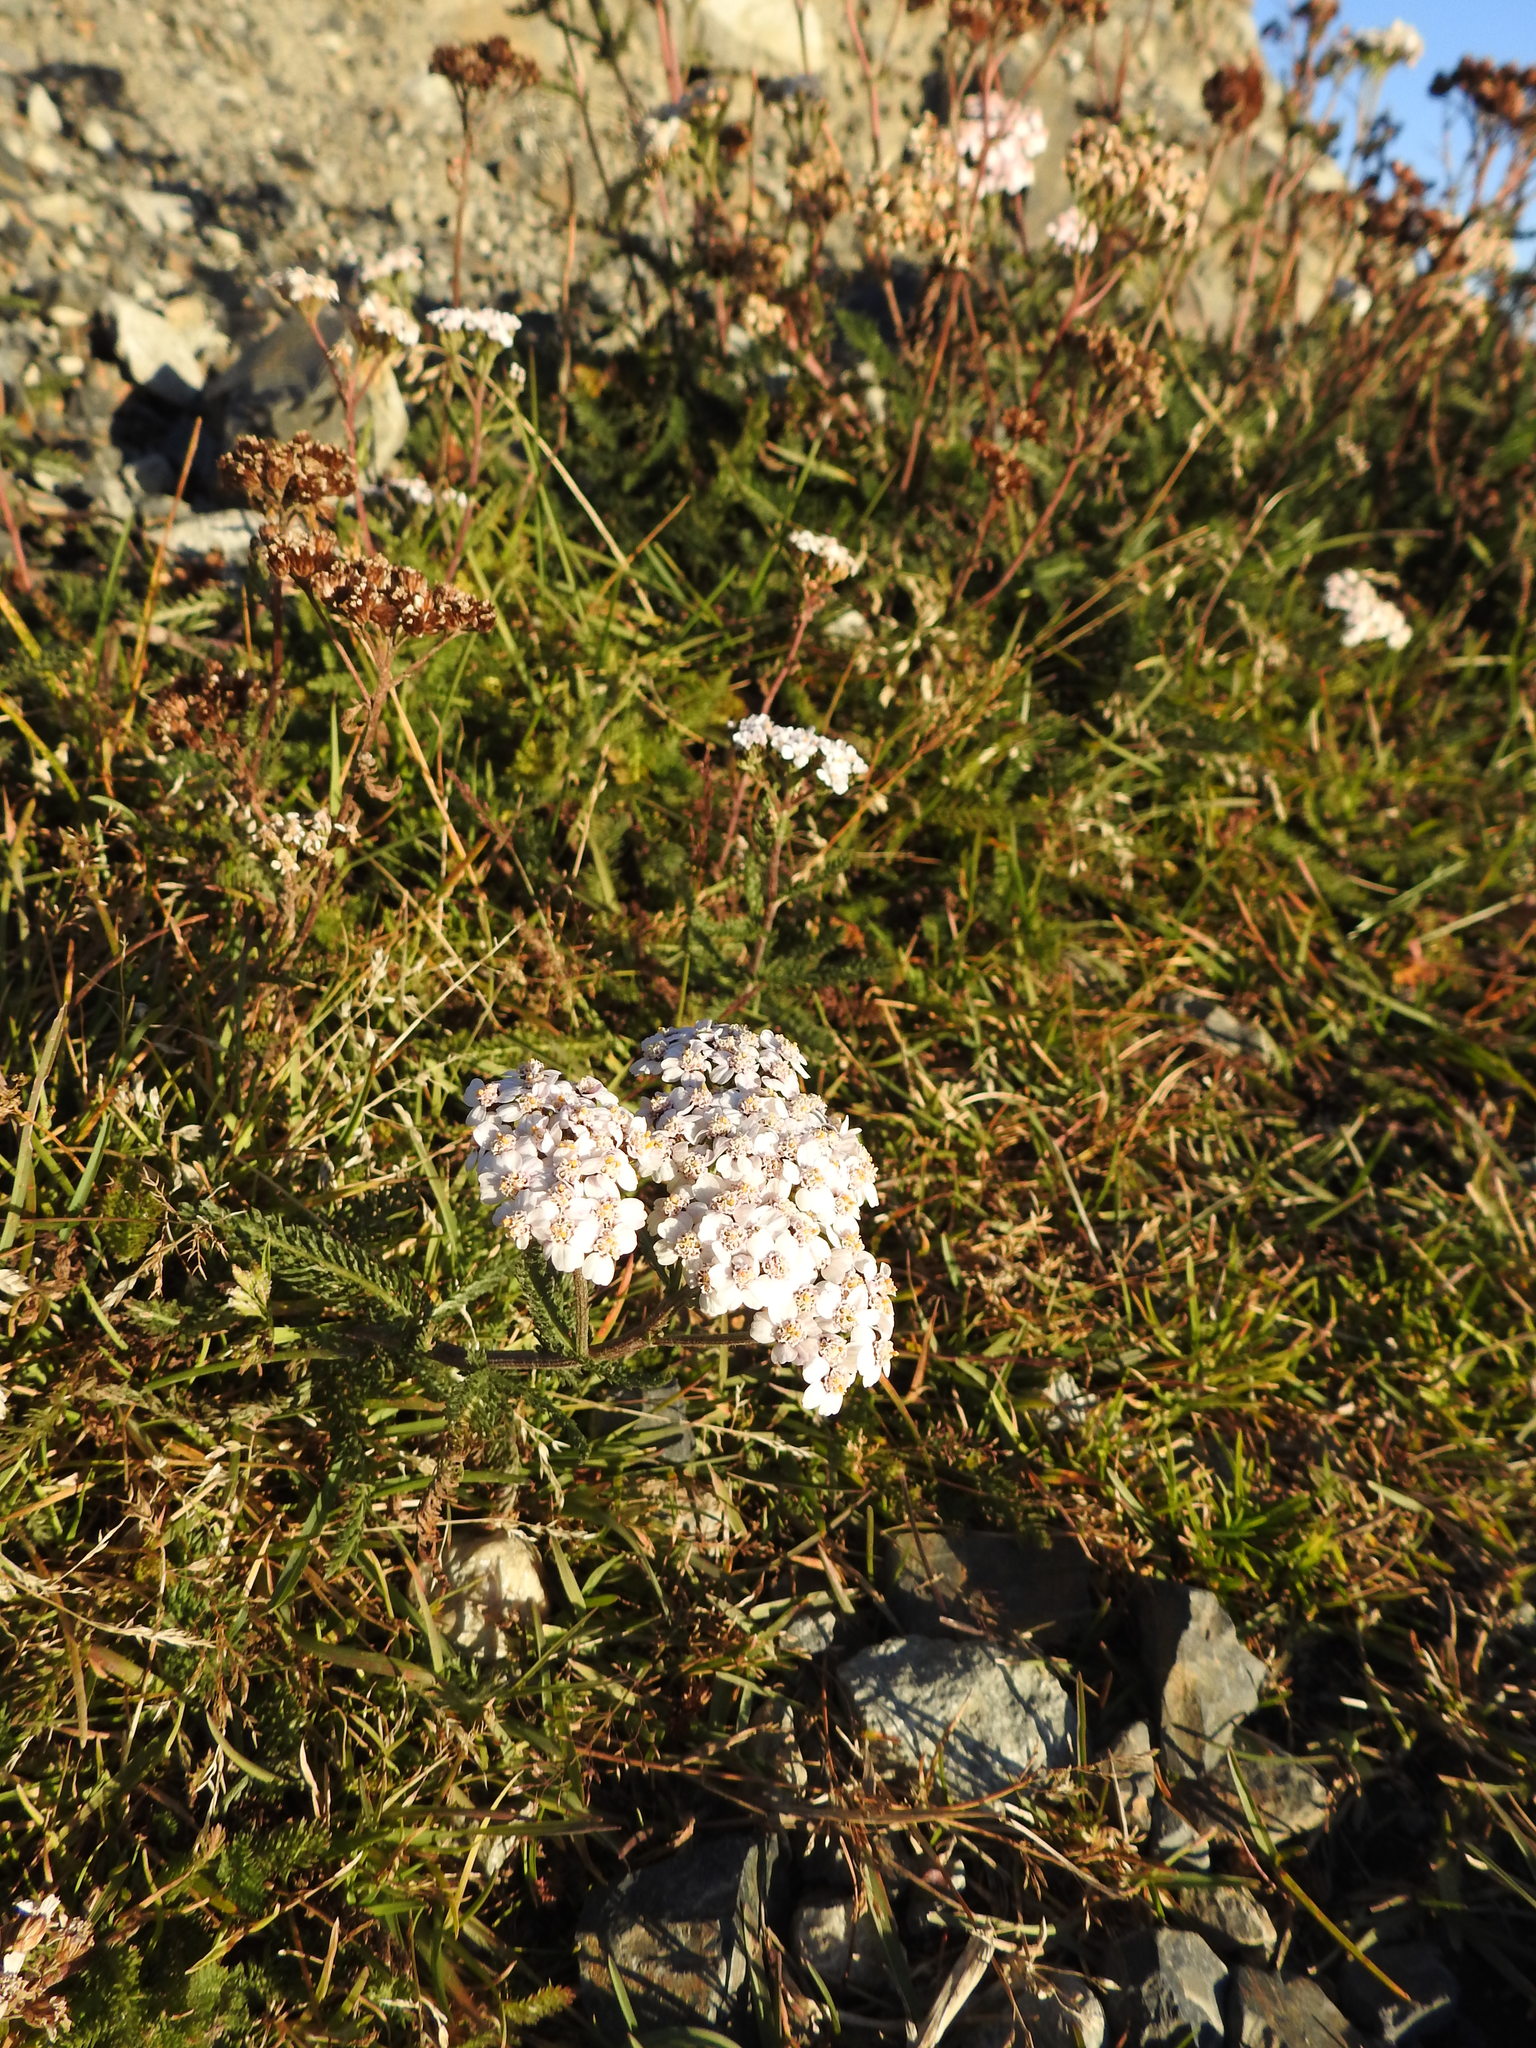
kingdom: Plantae
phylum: Tracheophyta
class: Magnoliopsida
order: Asterales
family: Asteraceae
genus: Achillea
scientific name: Achillea millefolium
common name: Yarrow
